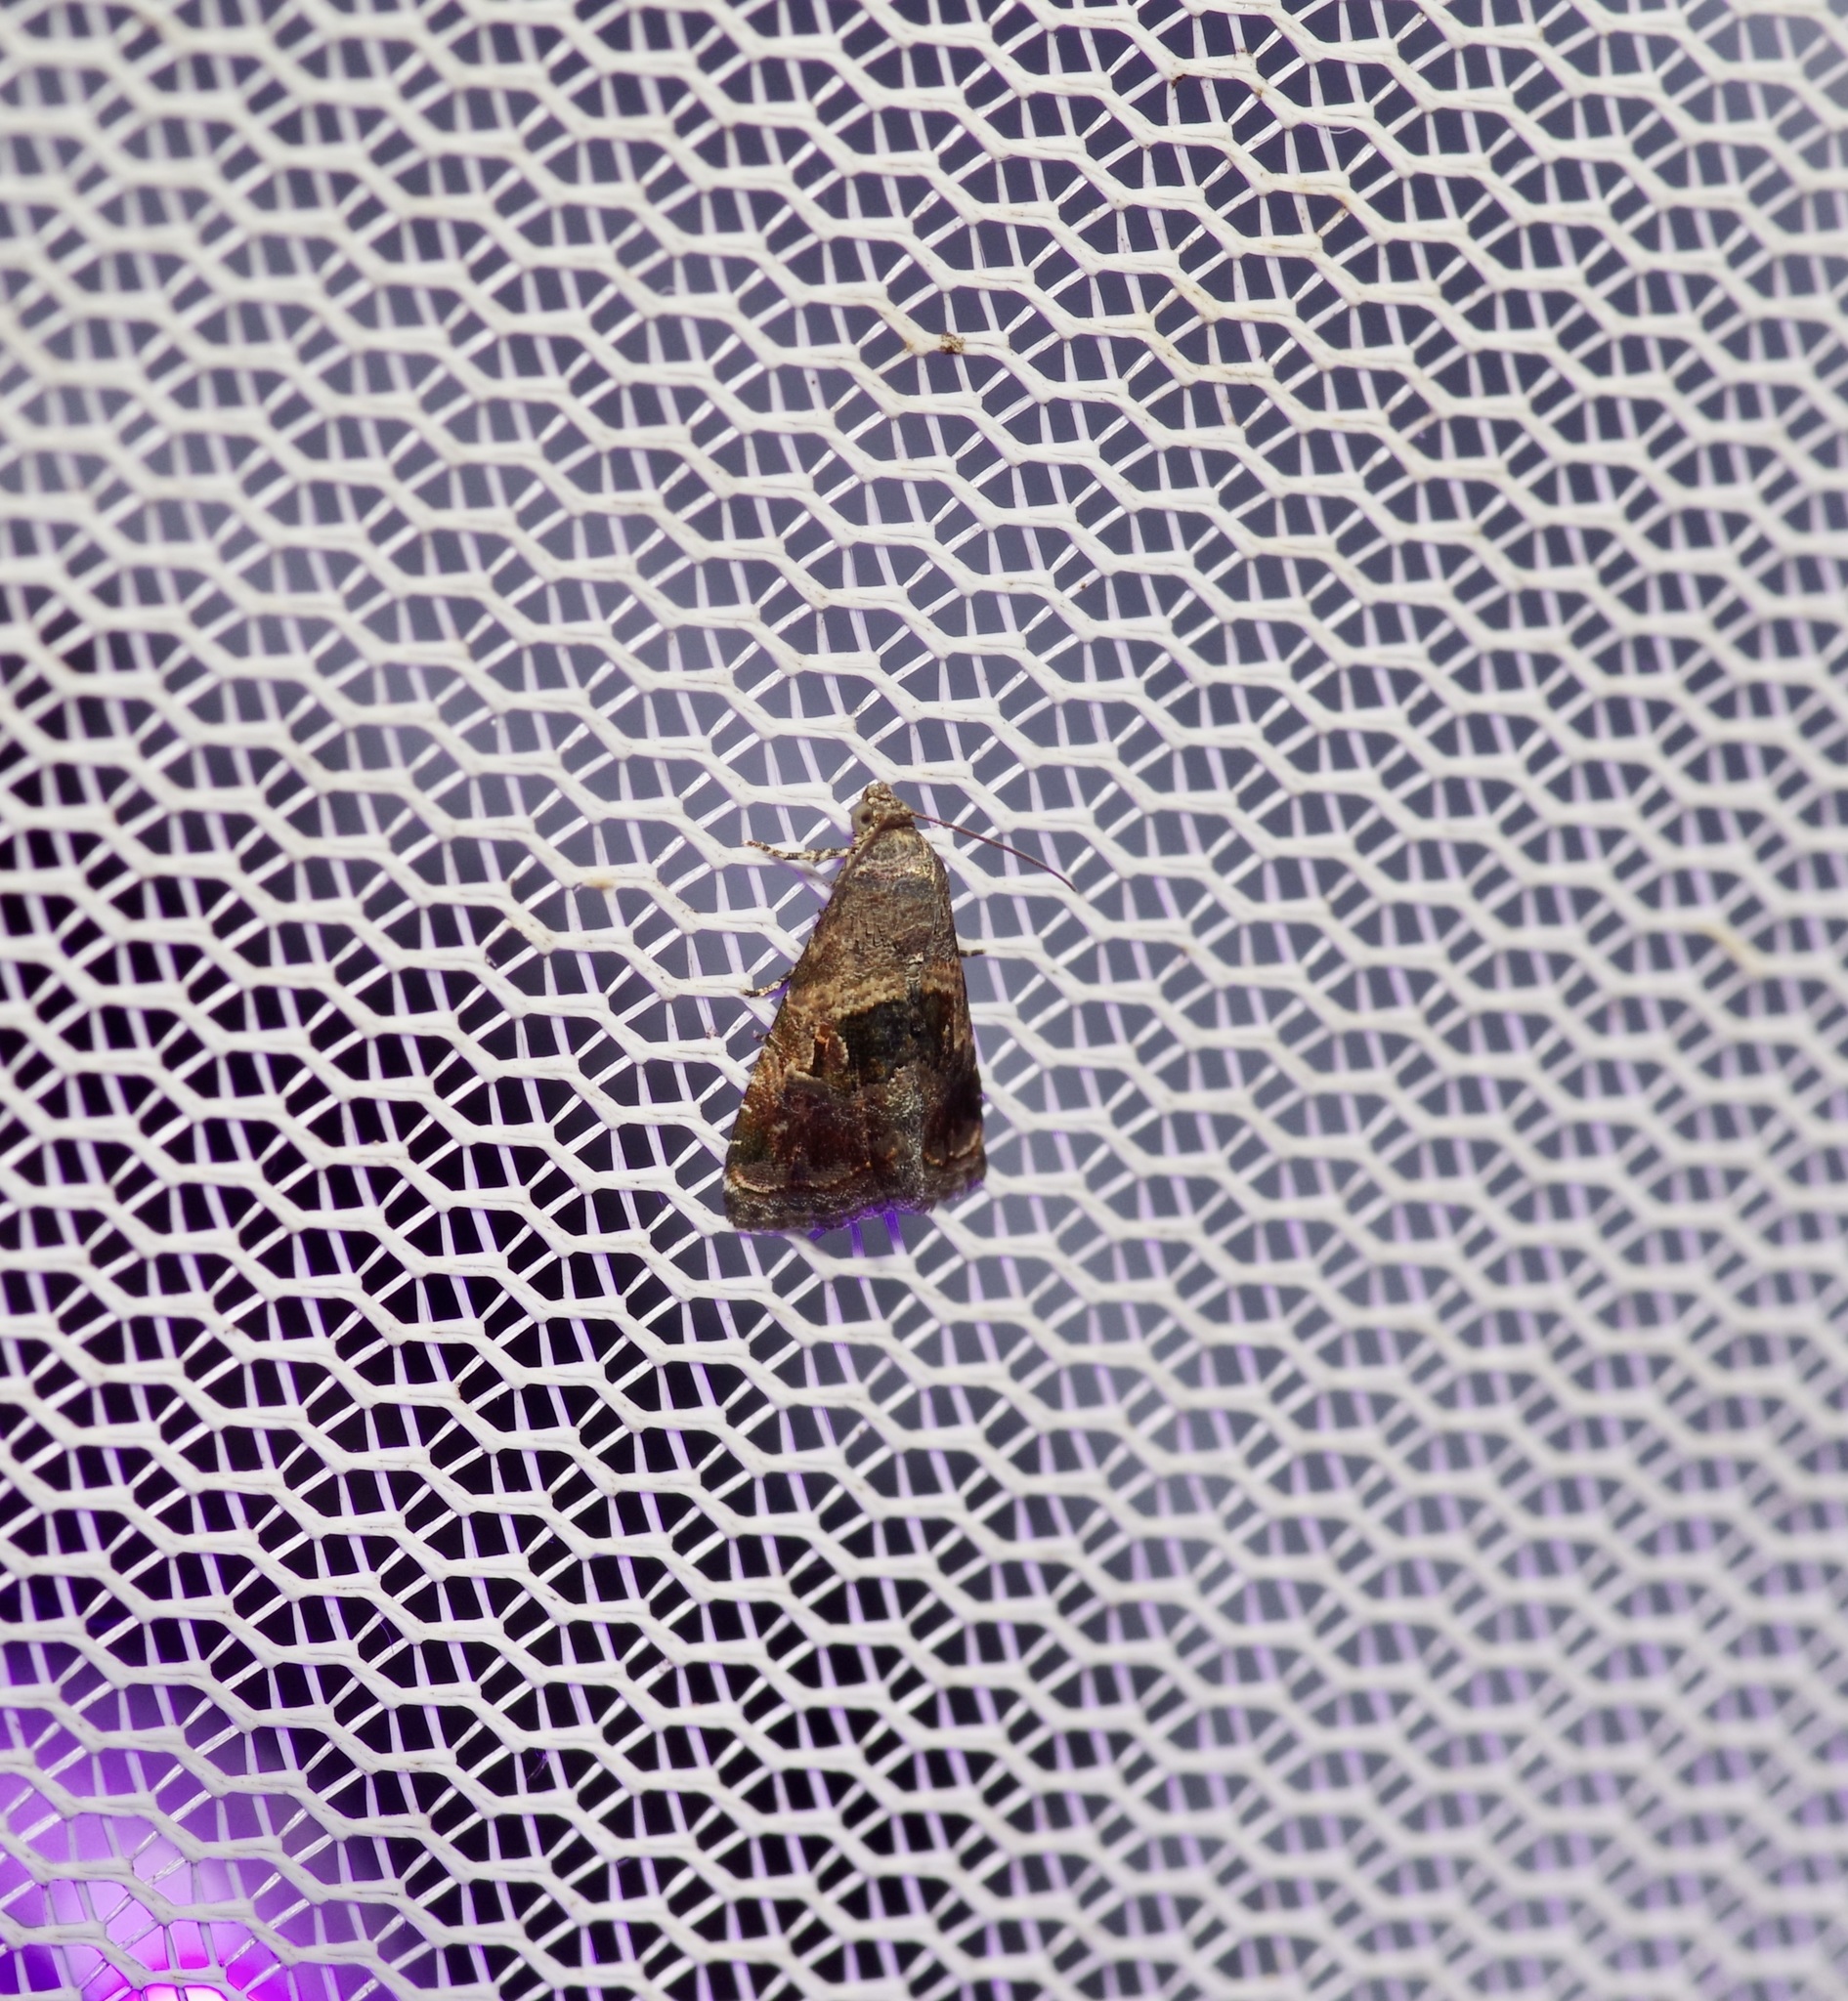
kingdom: Animalia
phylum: Arthropoda
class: Insecta
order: Lepidoptera
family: Noctuidae
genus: Tripudia
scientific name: Tripudia quadrifera
